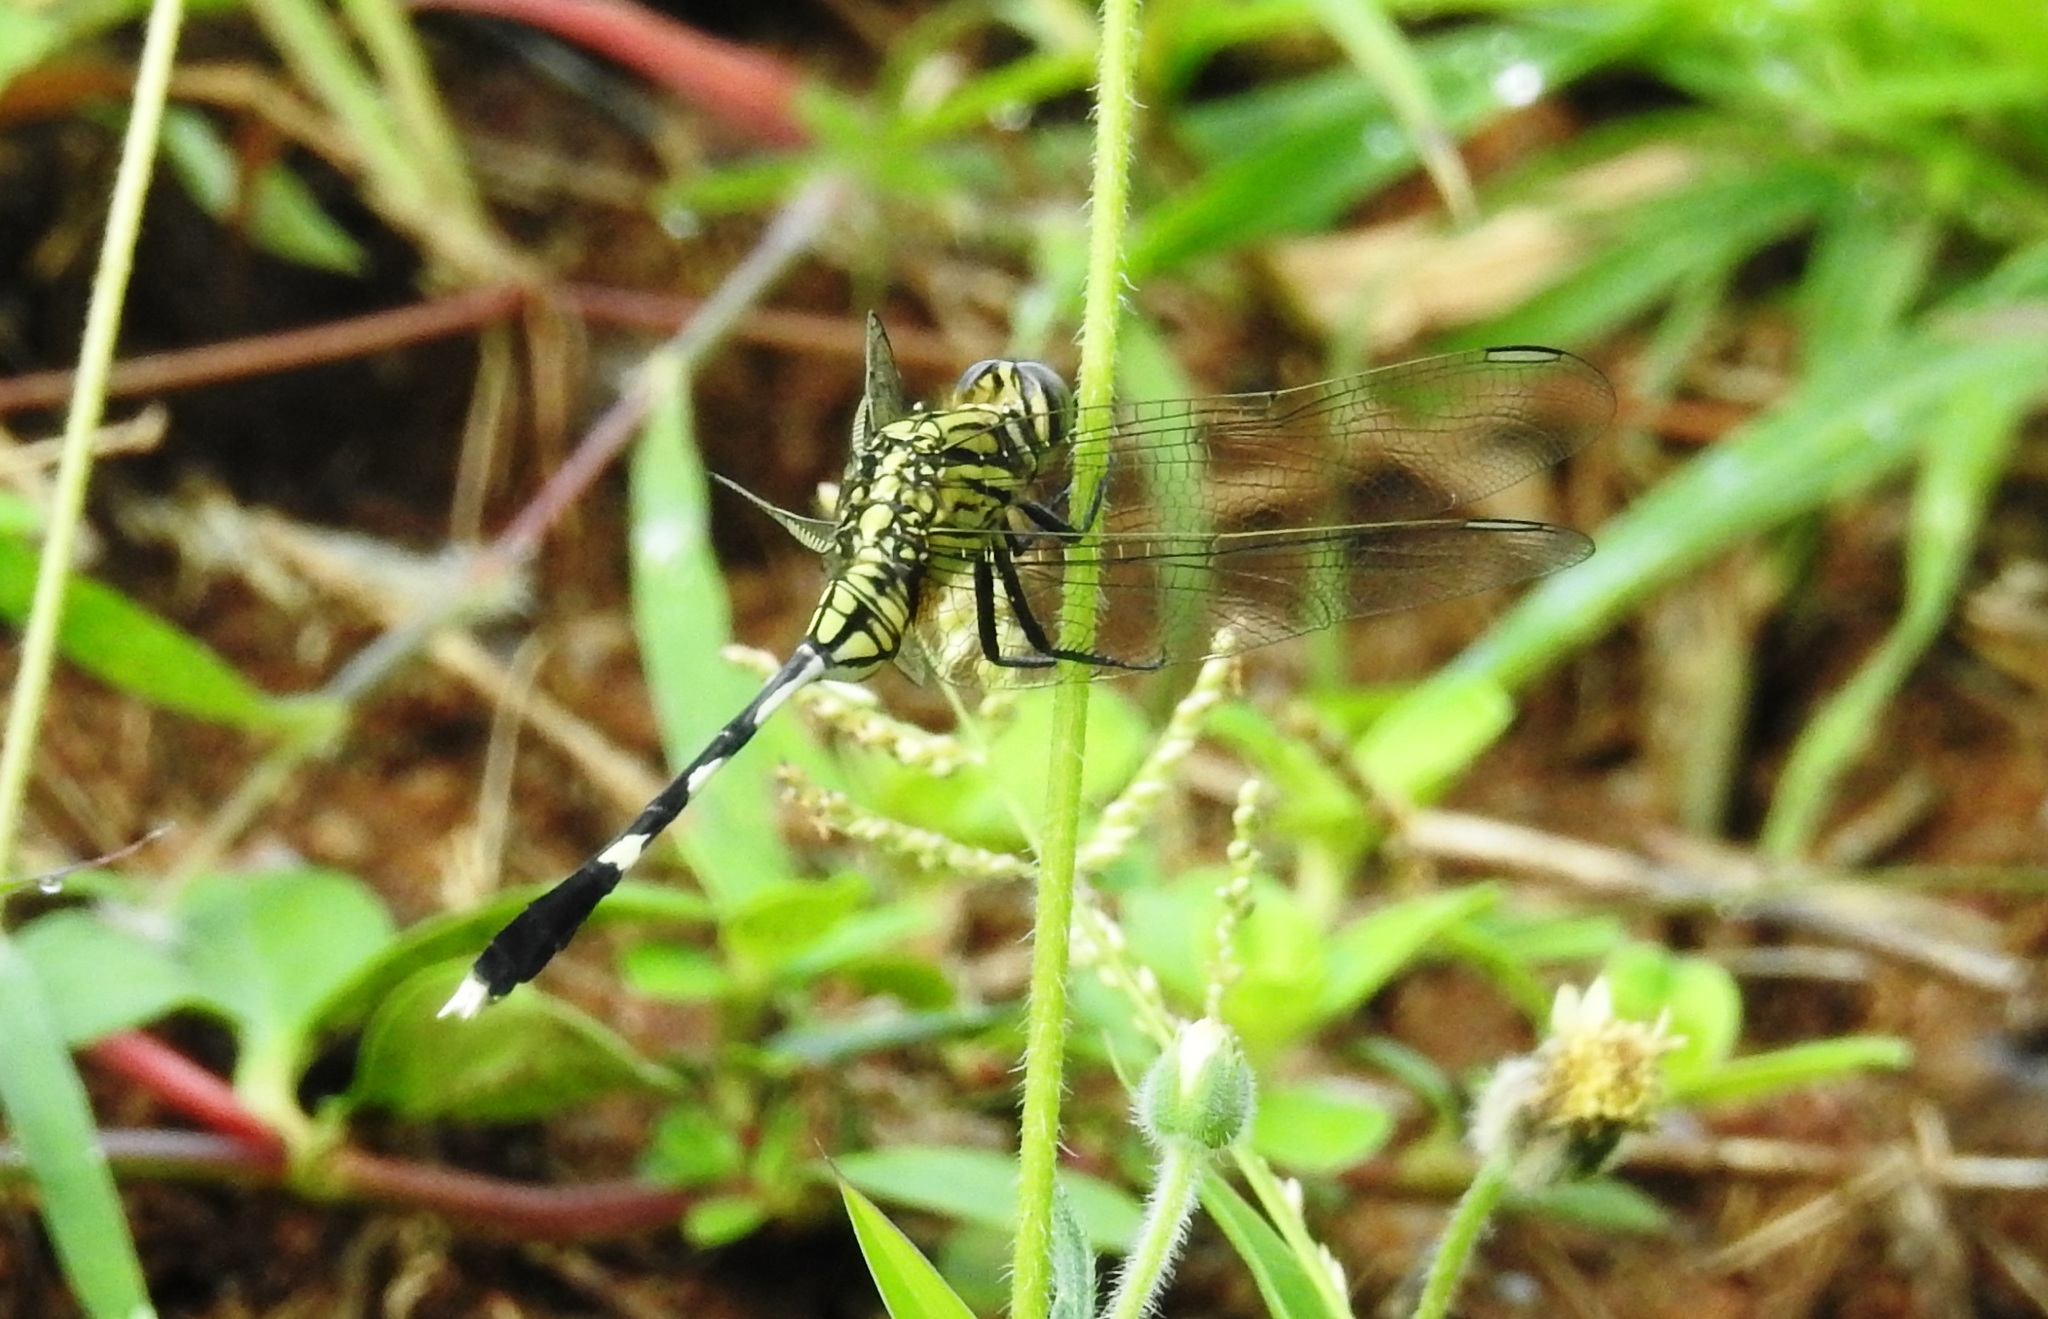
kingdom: Animalia
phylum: Arthropoda
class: Insecta
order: Odonata
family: Libellulidae
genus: Orthetrum
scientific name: Orthetrum sabina
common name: Slender skimmer
